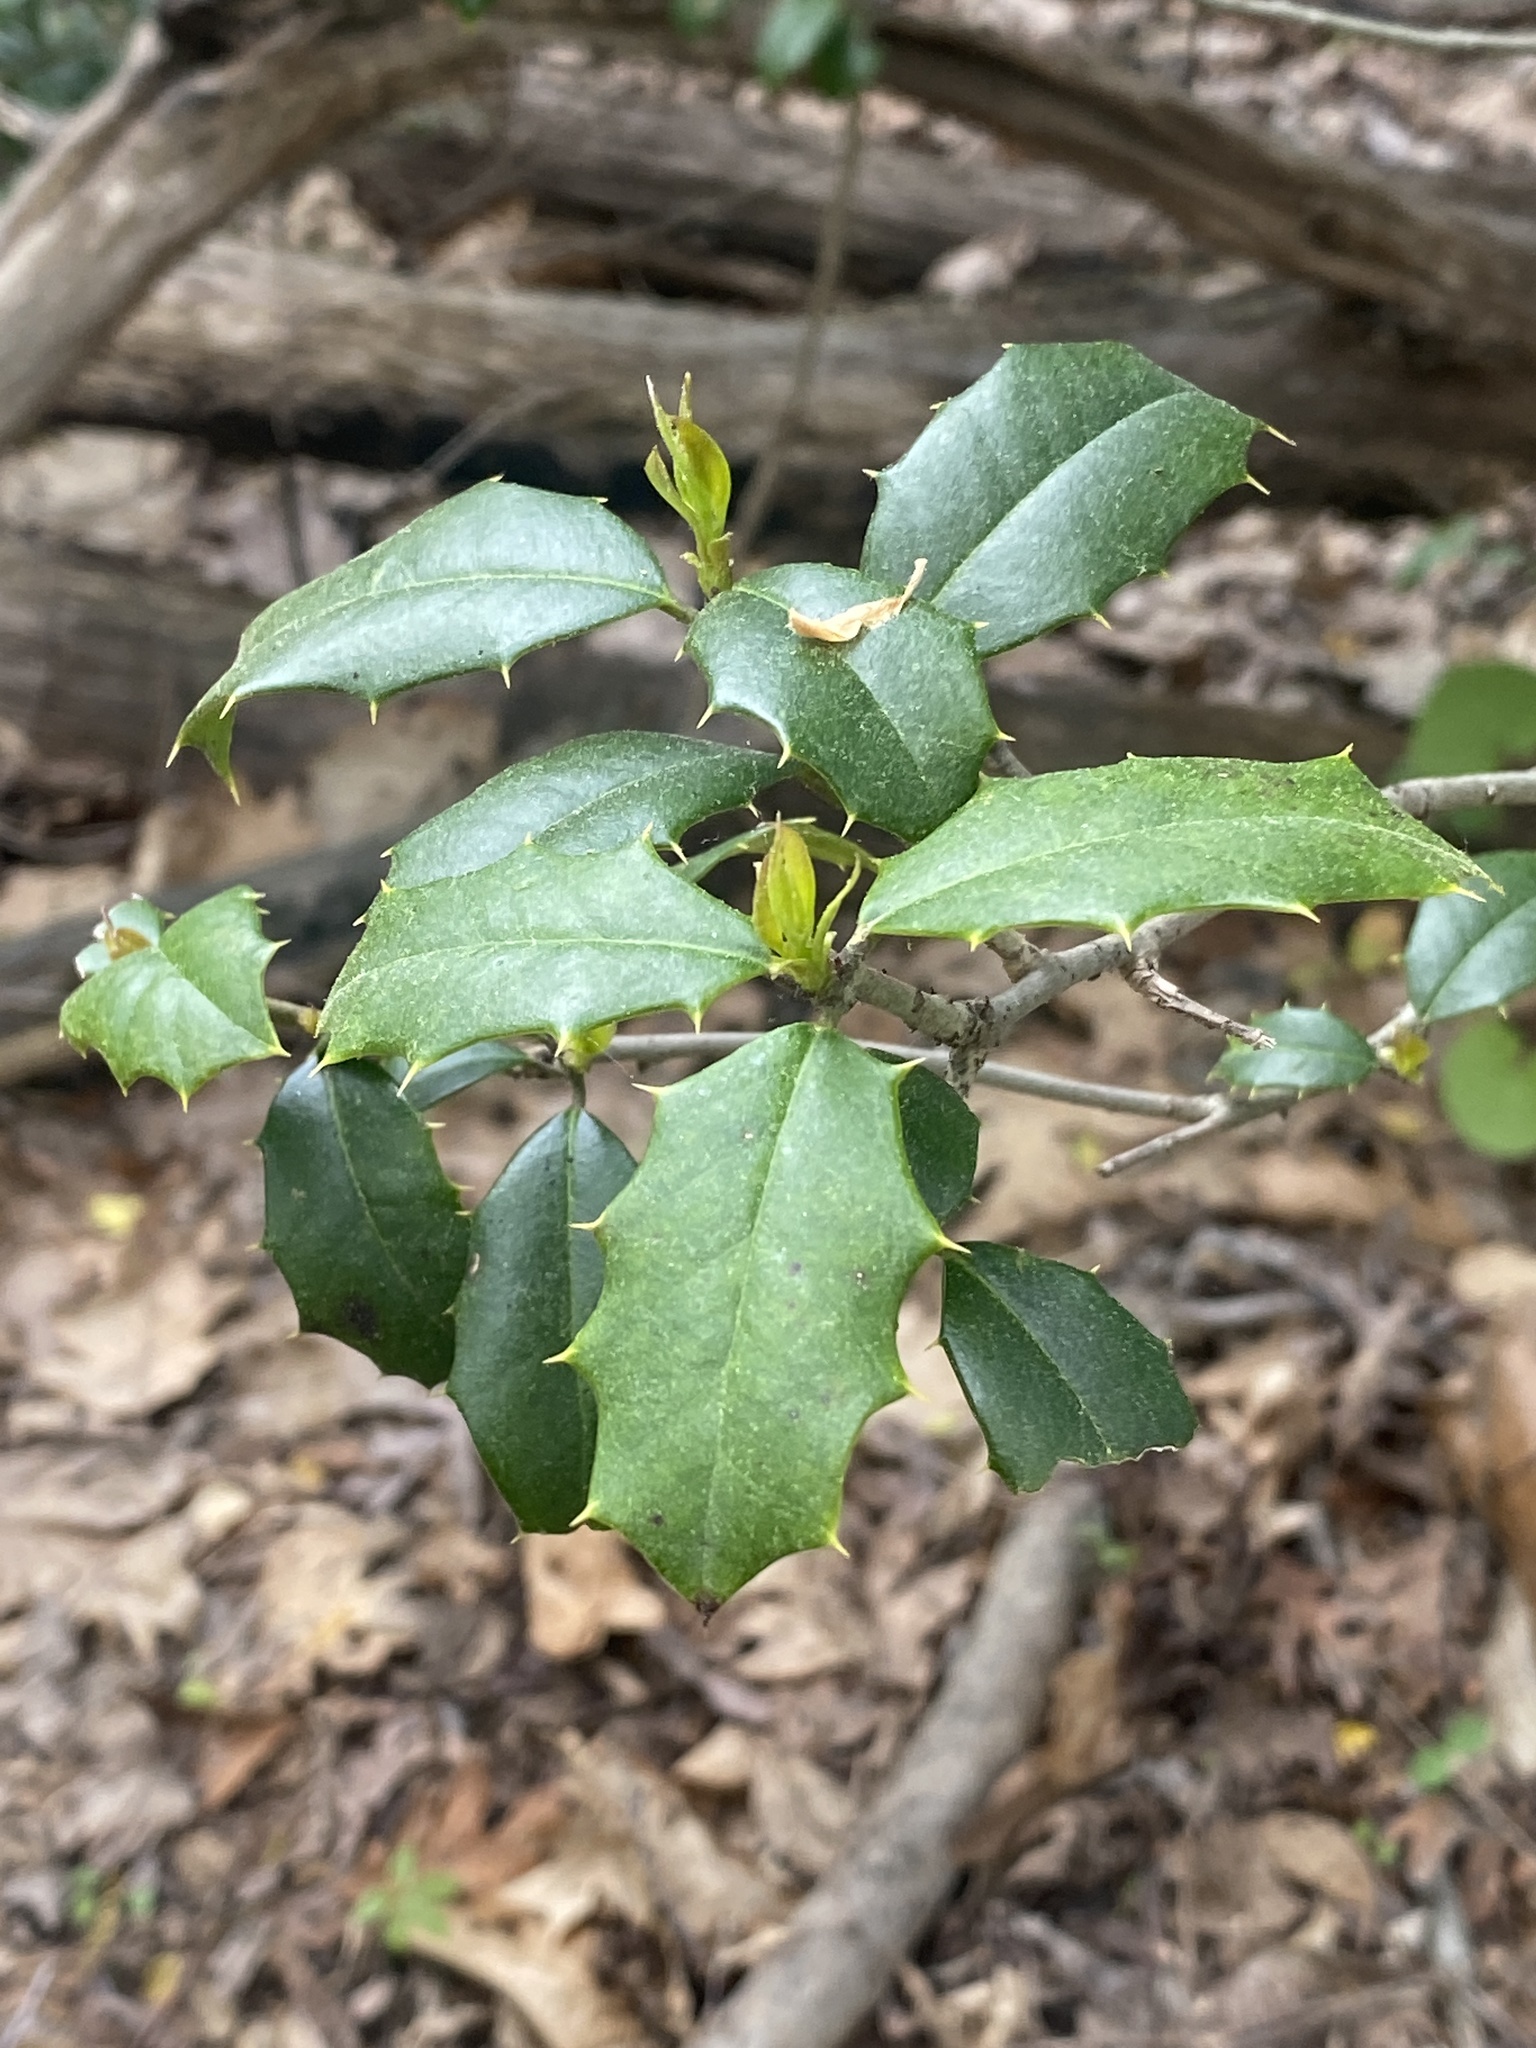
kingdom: Plantae
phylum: Tracheophyta
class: Magnoliopsida
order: Aquifoliales
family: Aquifoliaceae
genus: Ilex
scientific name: Ilex opaca
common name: American holly
